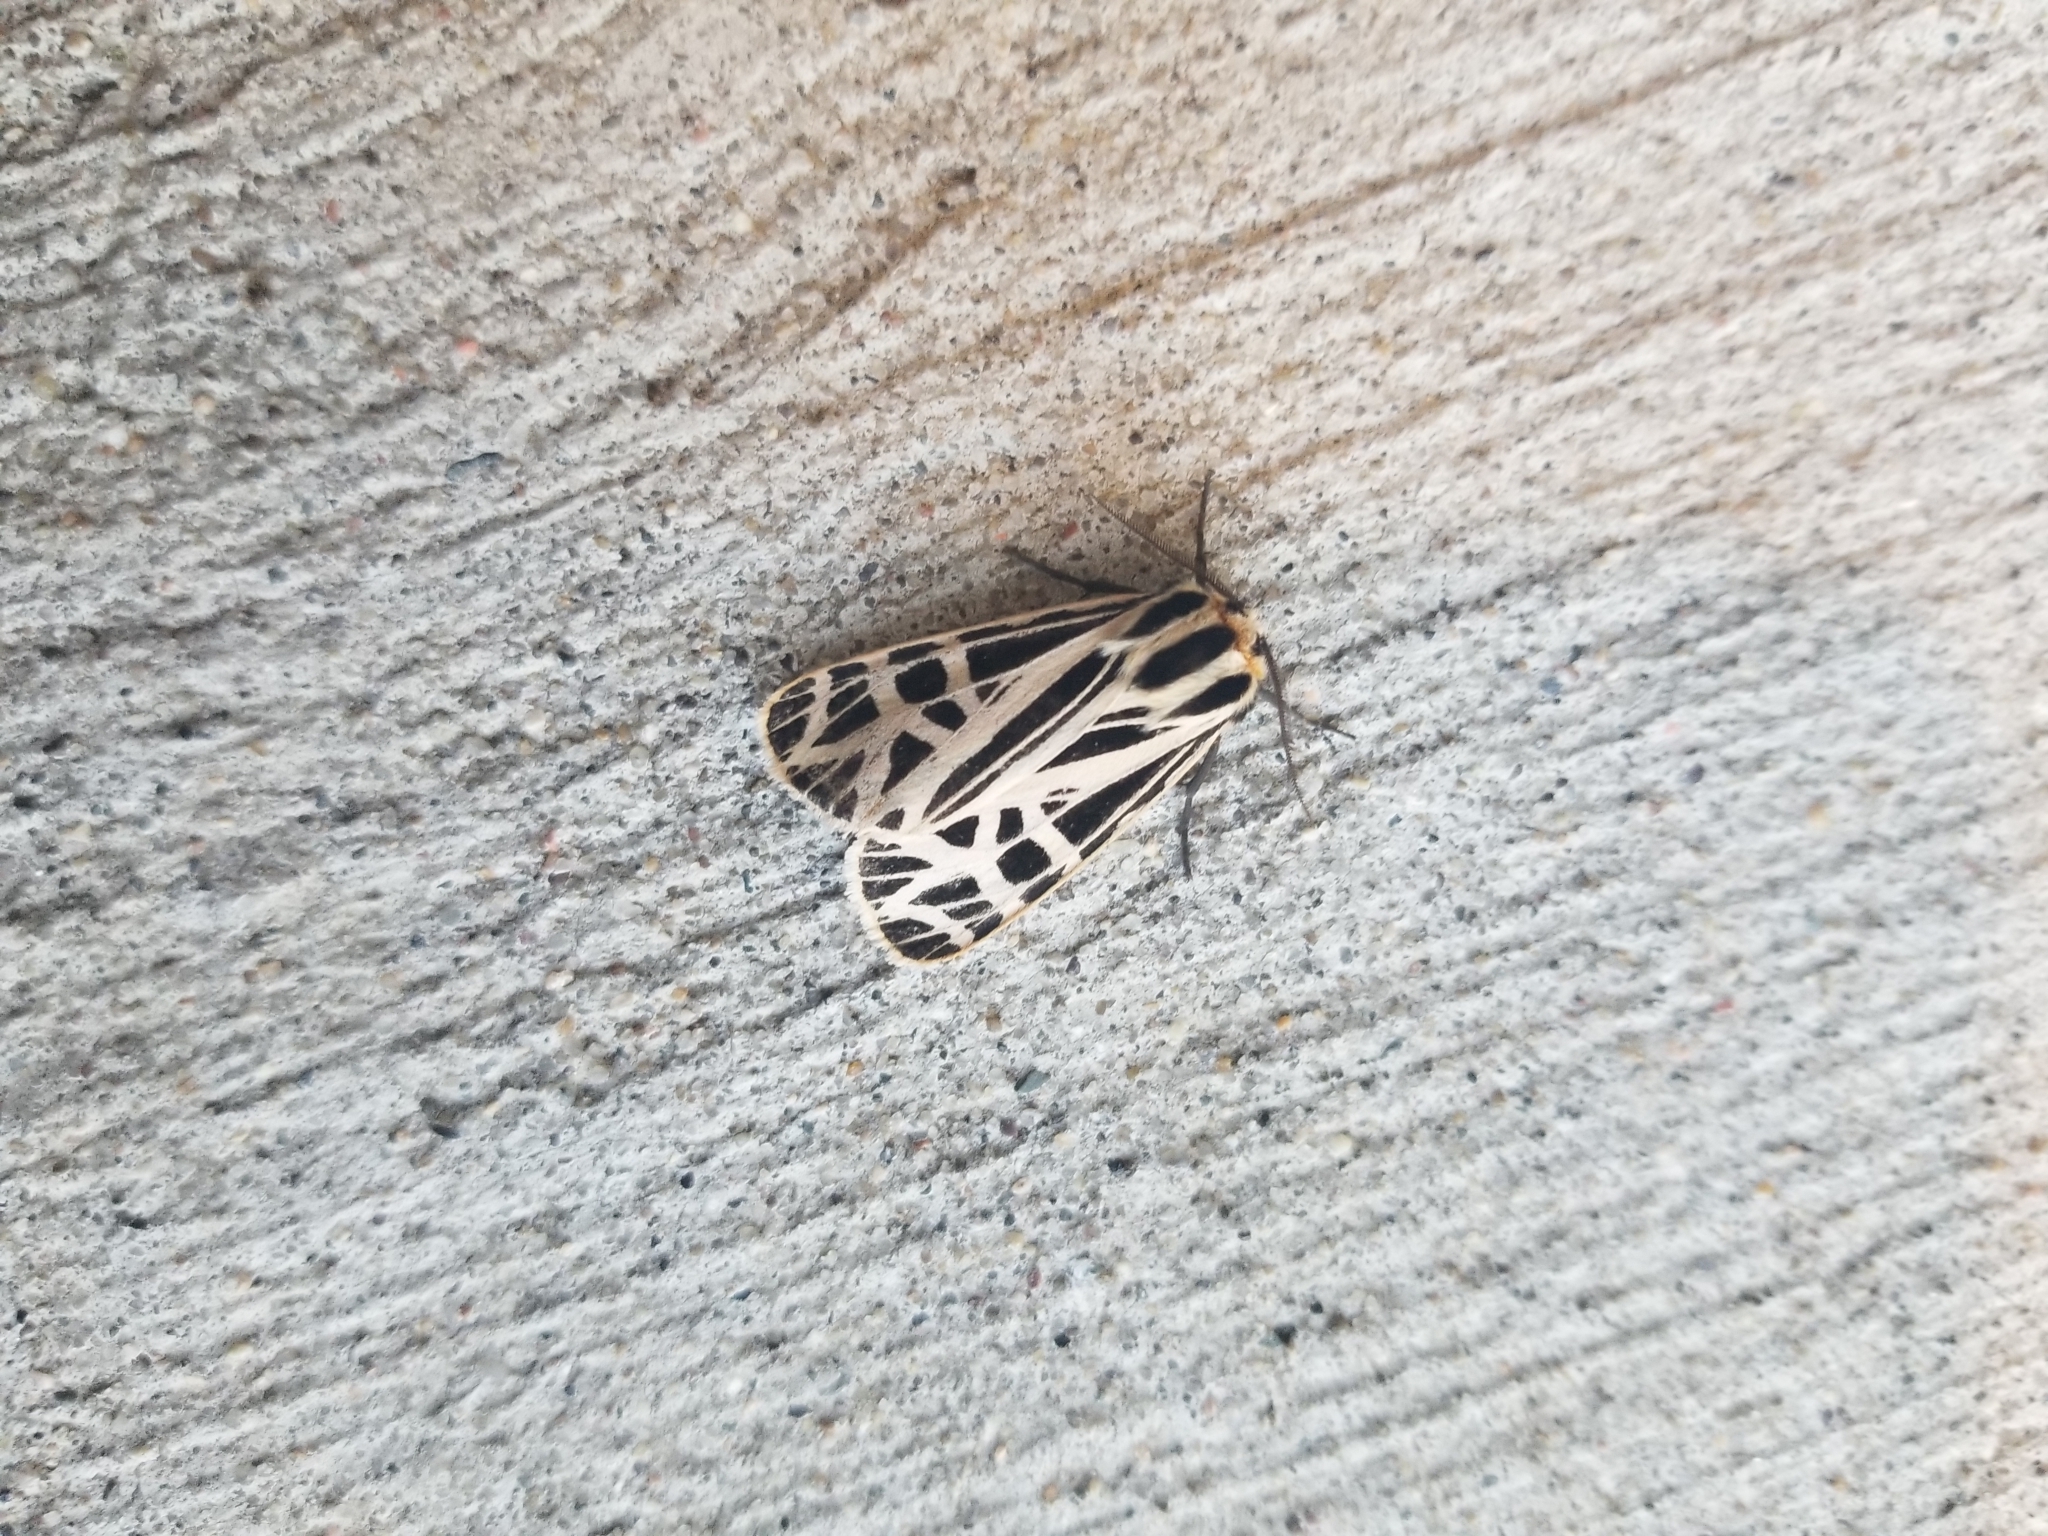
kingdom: Animalia
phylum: Arthropoda
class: Insecta
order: Lepidoptera
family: Erebidae
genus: Grammia
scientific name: Grammia parthenice
